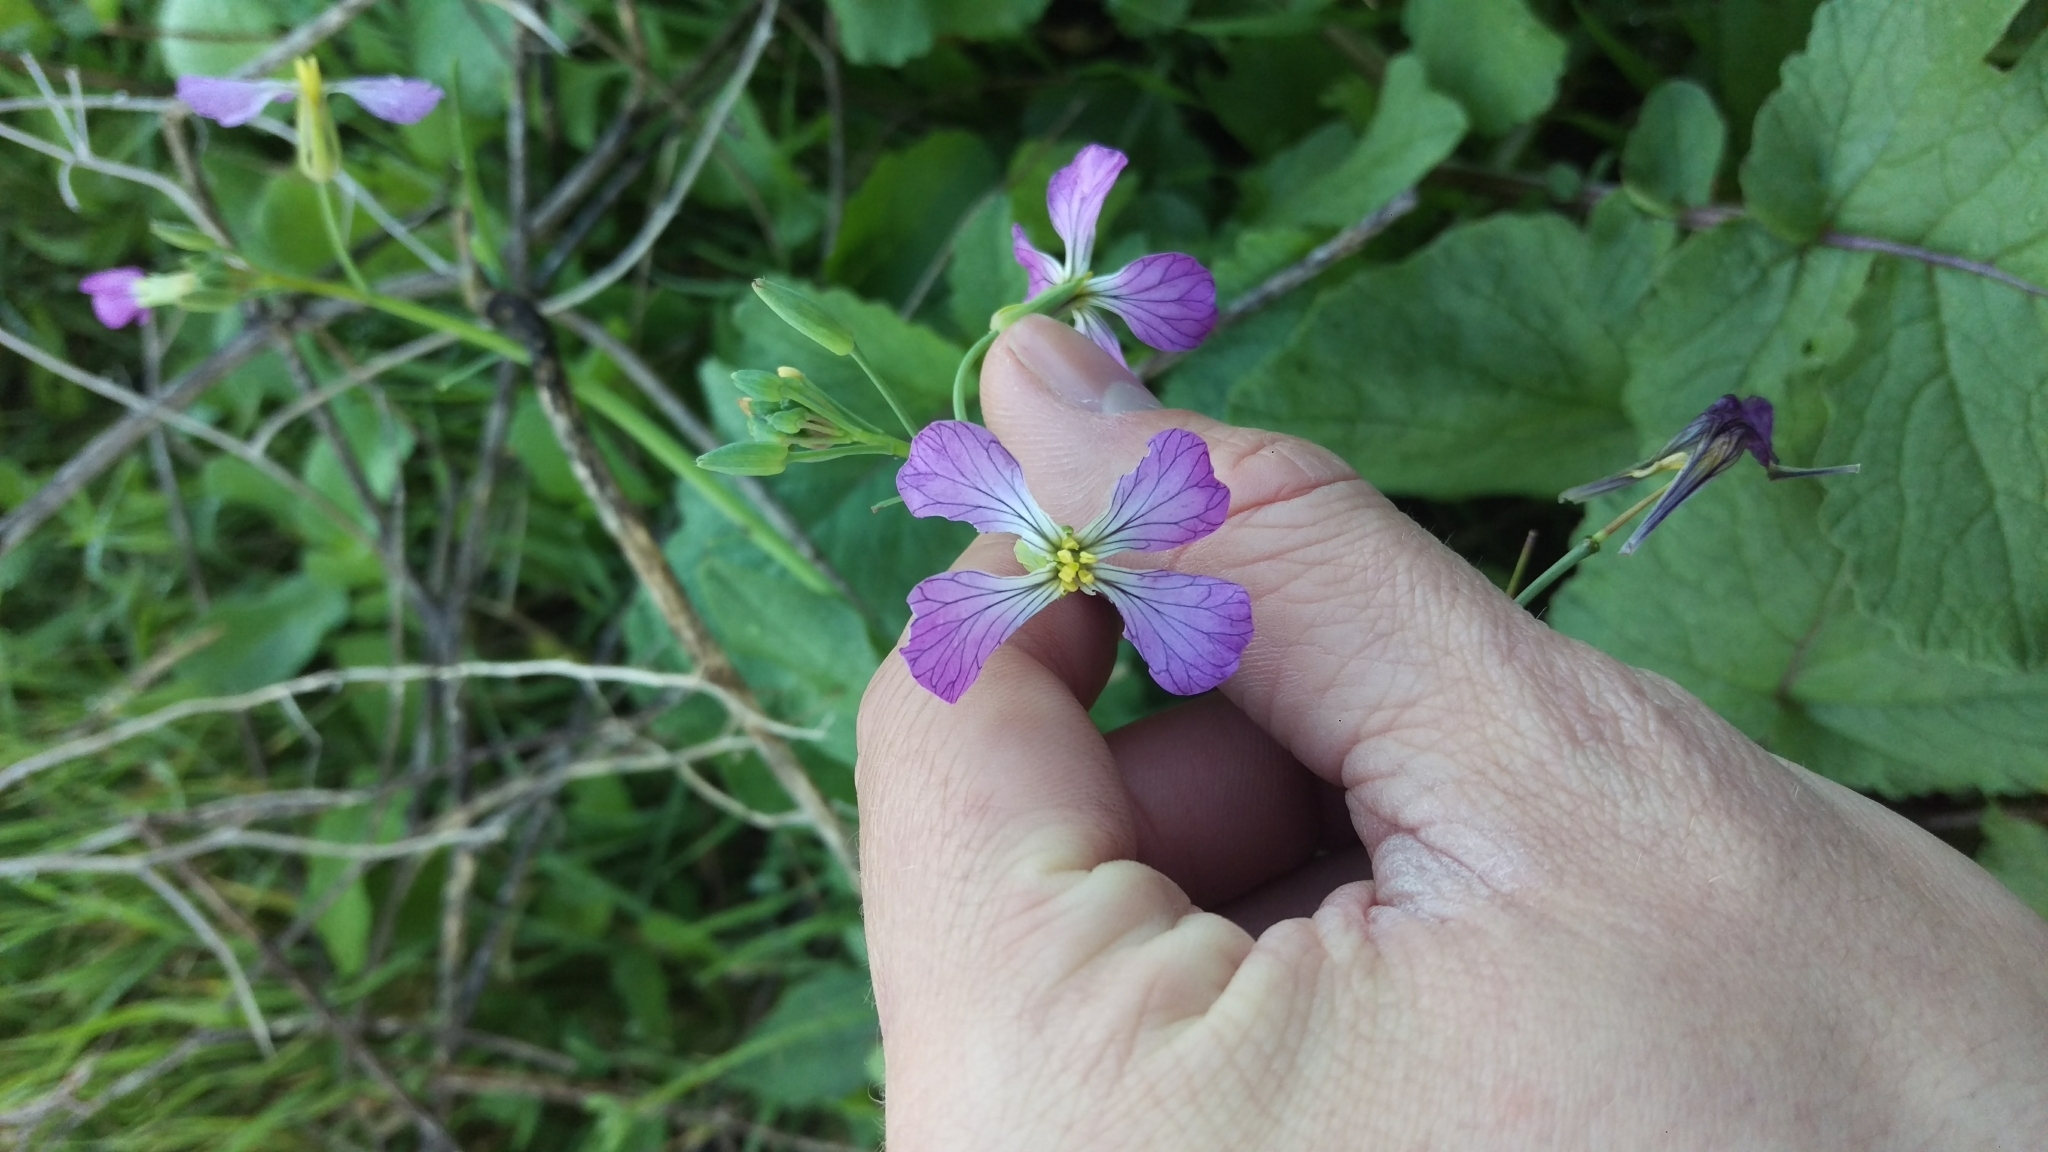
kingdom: Plantae
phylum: Tracheophyta
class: Magnoliopsida
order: Brassicales
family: Brassicaceae
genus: Raphanus
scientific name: Raphanus sativus
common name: Cultivated radish
